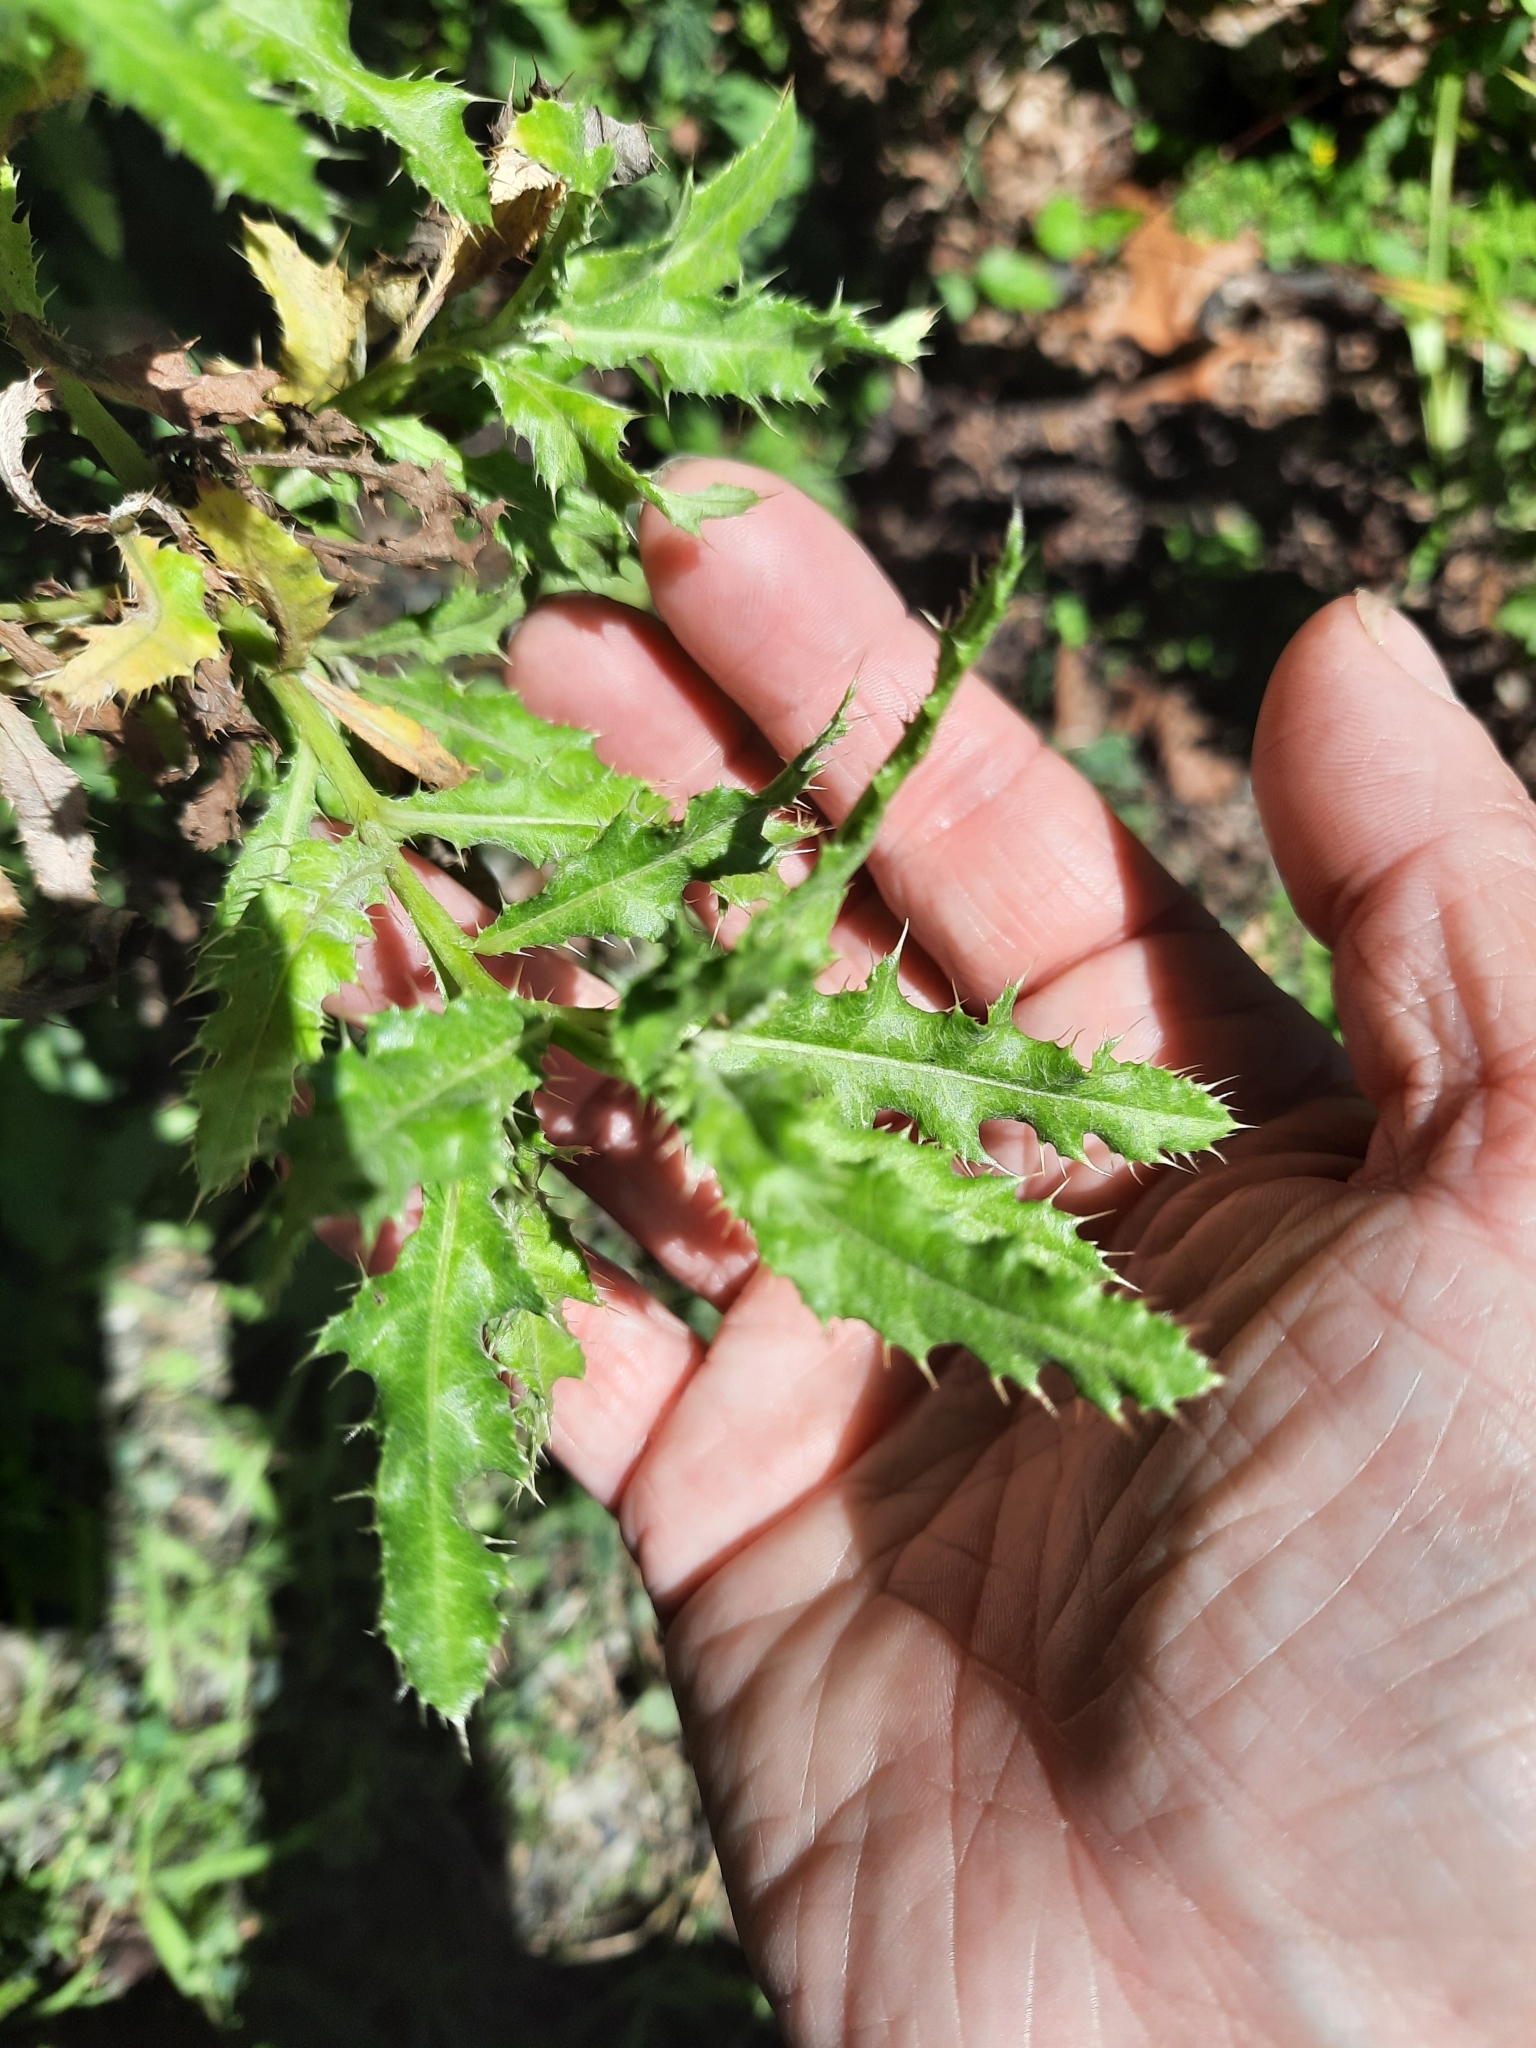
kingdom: Plantae
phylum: Tracheophyta
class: Magnoliopsida
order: Asterales
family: Asteraceae
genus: Cirsium
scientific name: Cirsium arvense
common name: Creeping thistle
